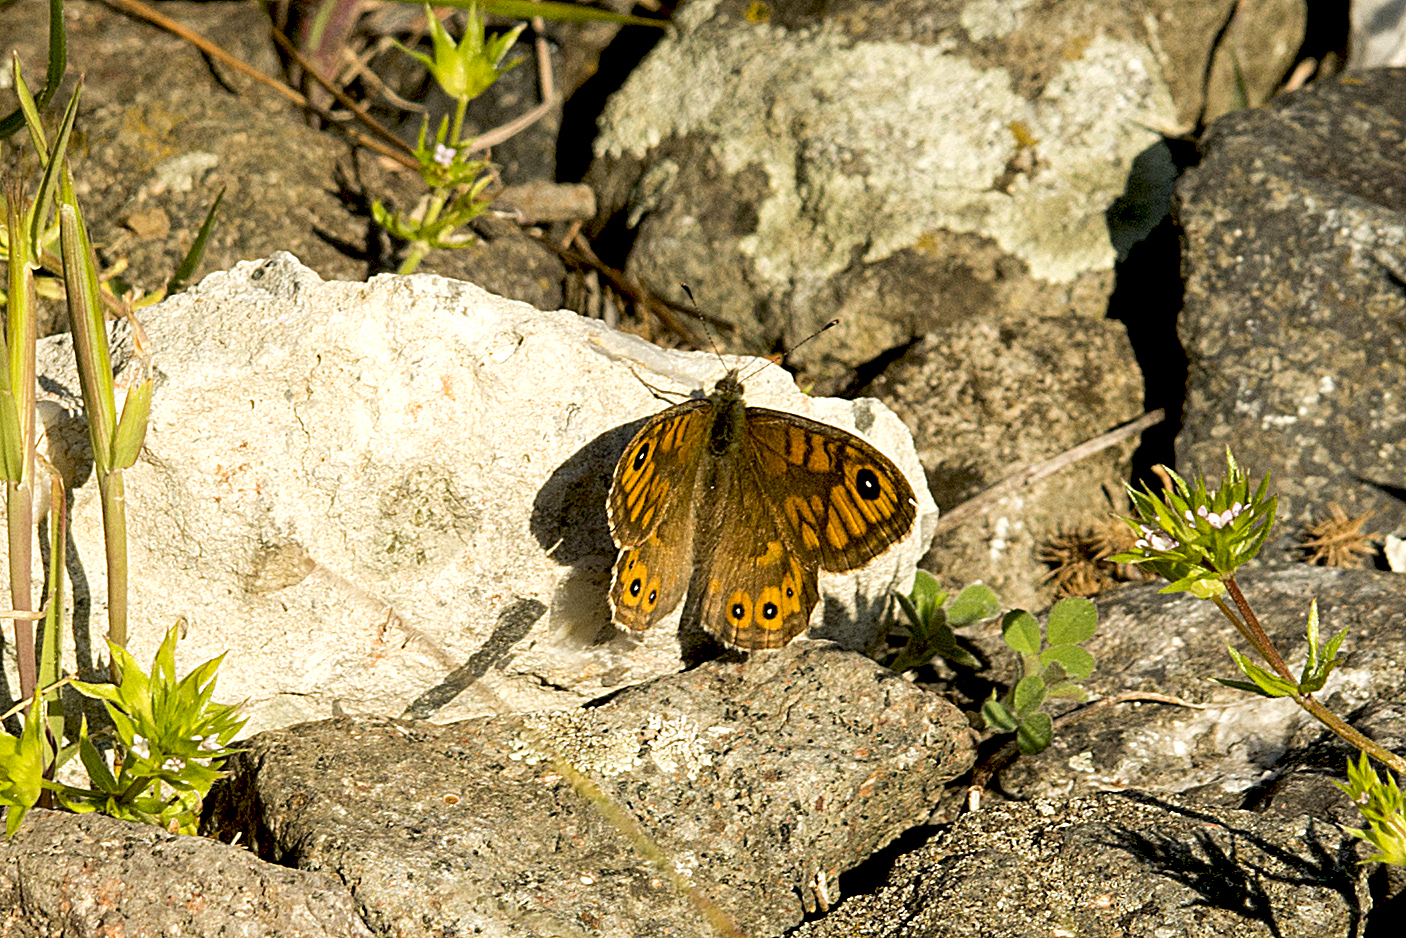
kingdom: Animalia
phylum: Arthropoda
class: Insecta
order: Lepidoptera
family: Nymphalidae
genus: Pararge
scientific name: Pararge Lasiommata megera
